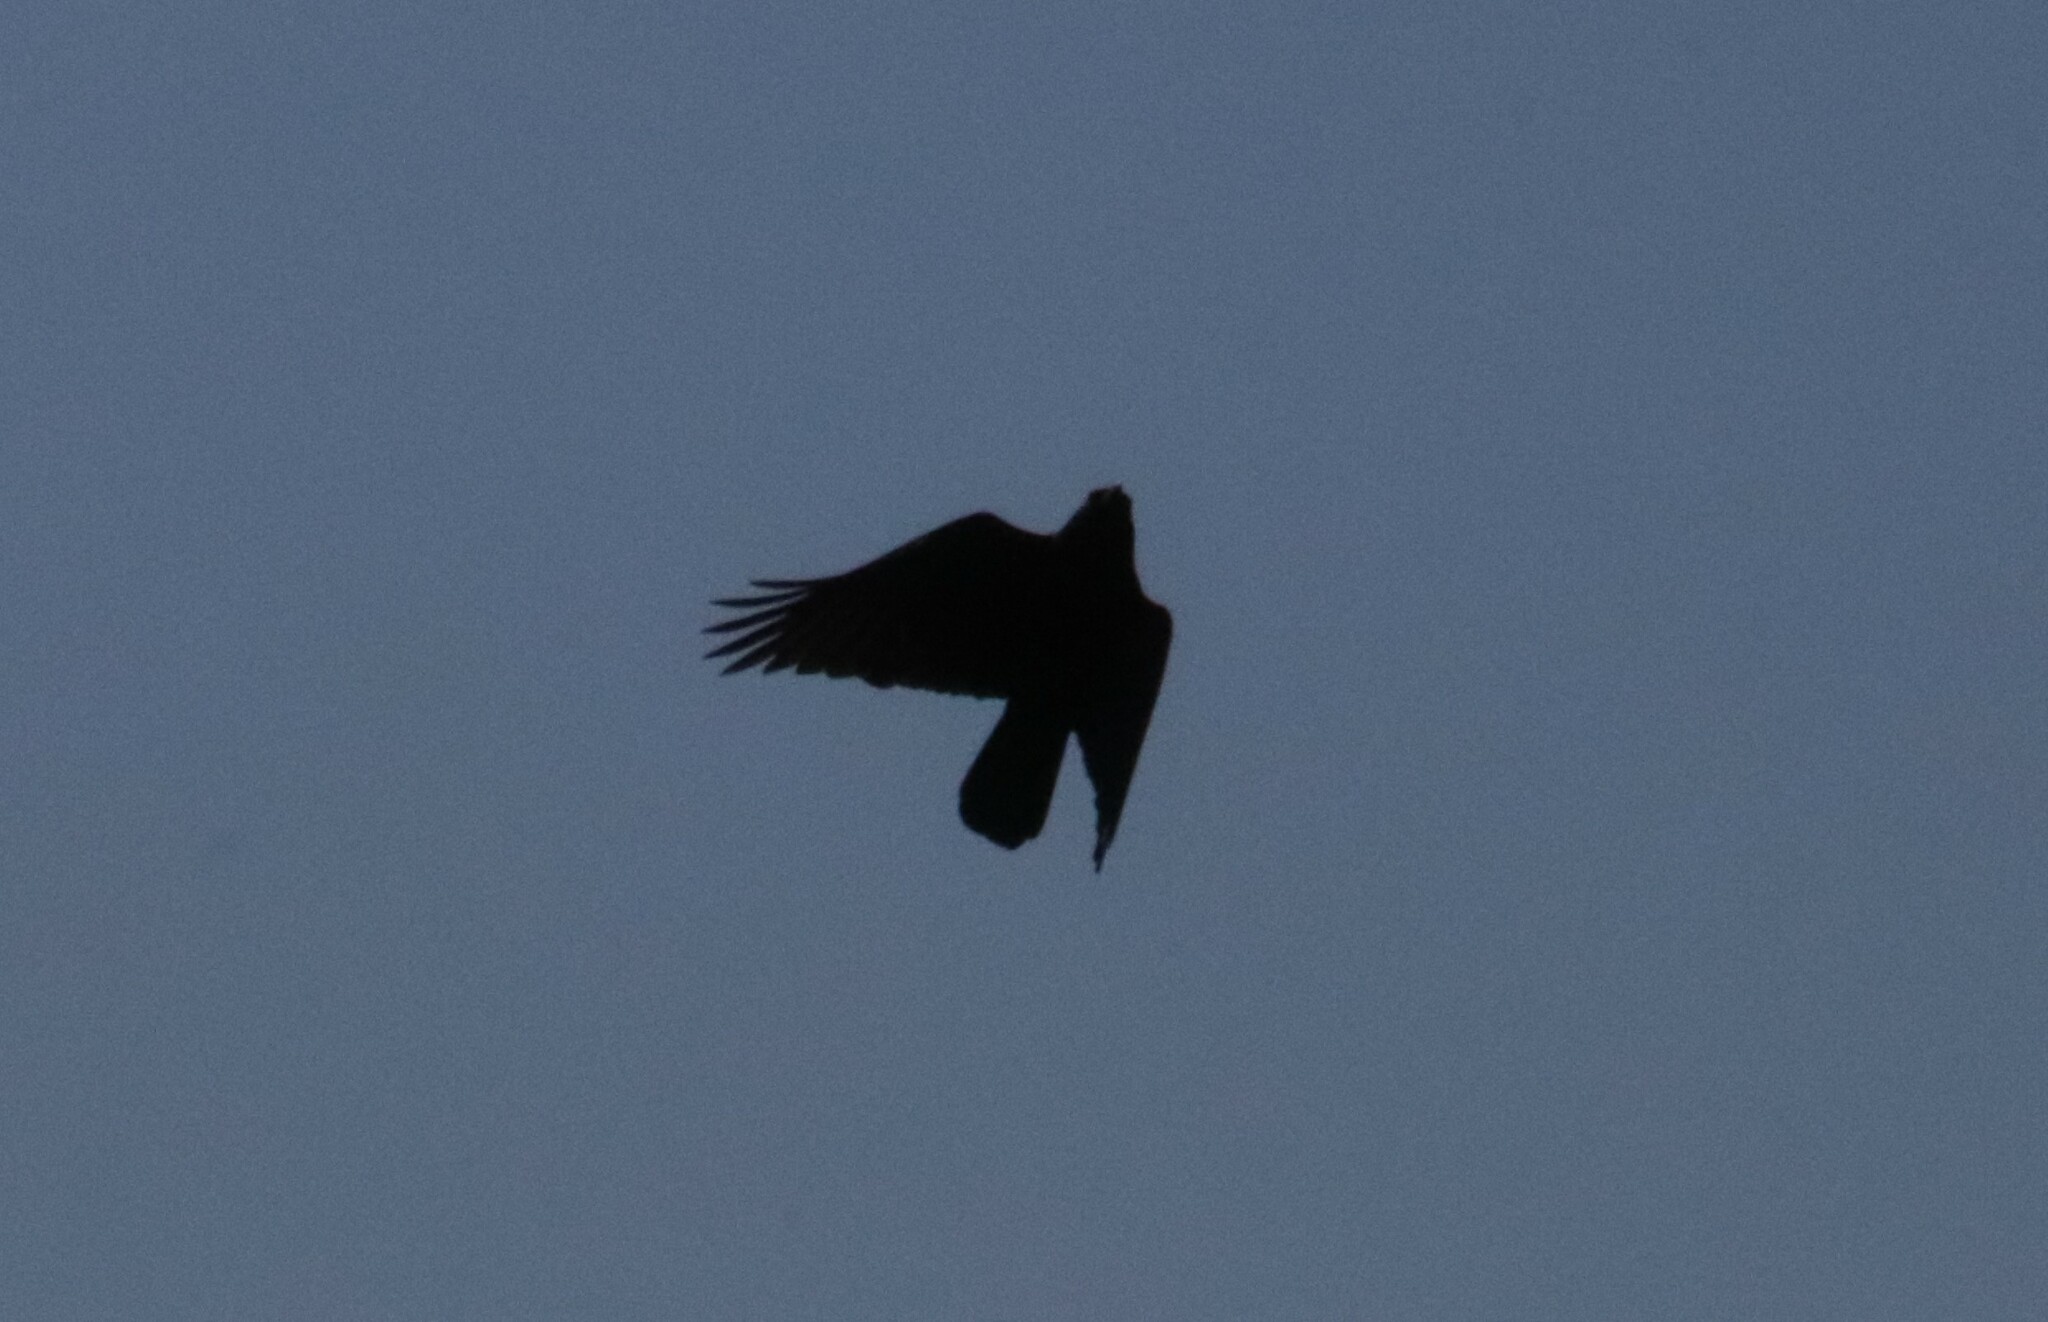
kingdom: Animalia
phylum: Chordata
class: Aves
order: Passeriformes
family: Corvidae
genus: Corvus
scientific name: Corvus brachyrhynchos
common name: American crow
